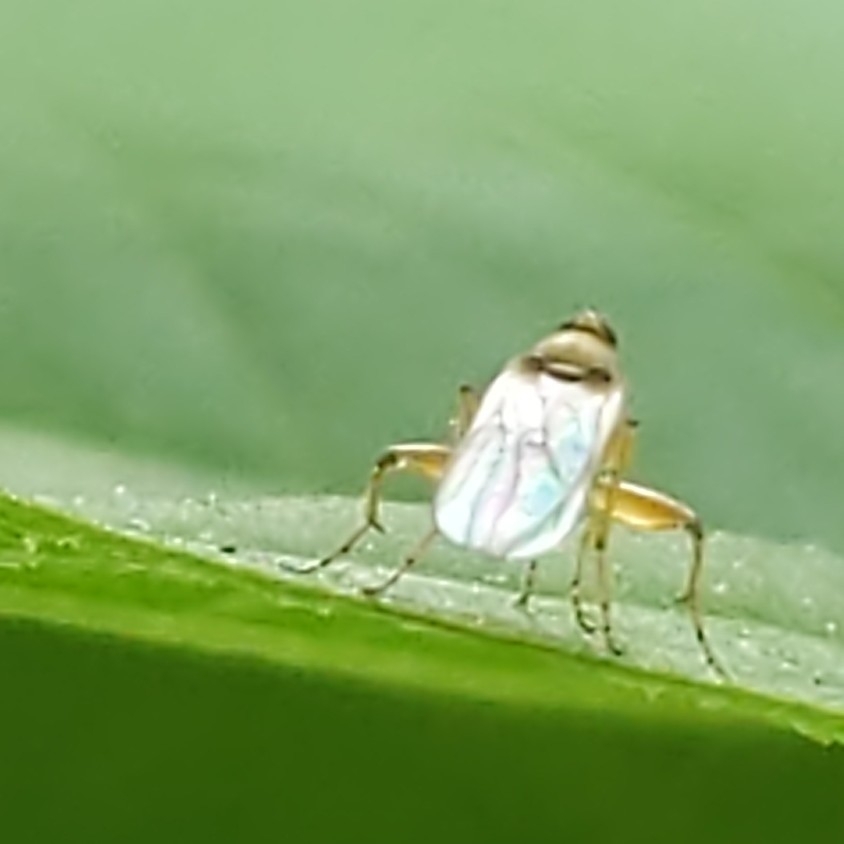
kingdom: Animalia
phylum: Arthropoda
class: Insecta
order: Diptera
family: Hybotidae
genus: Platypalpus
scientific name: Platypalpus
